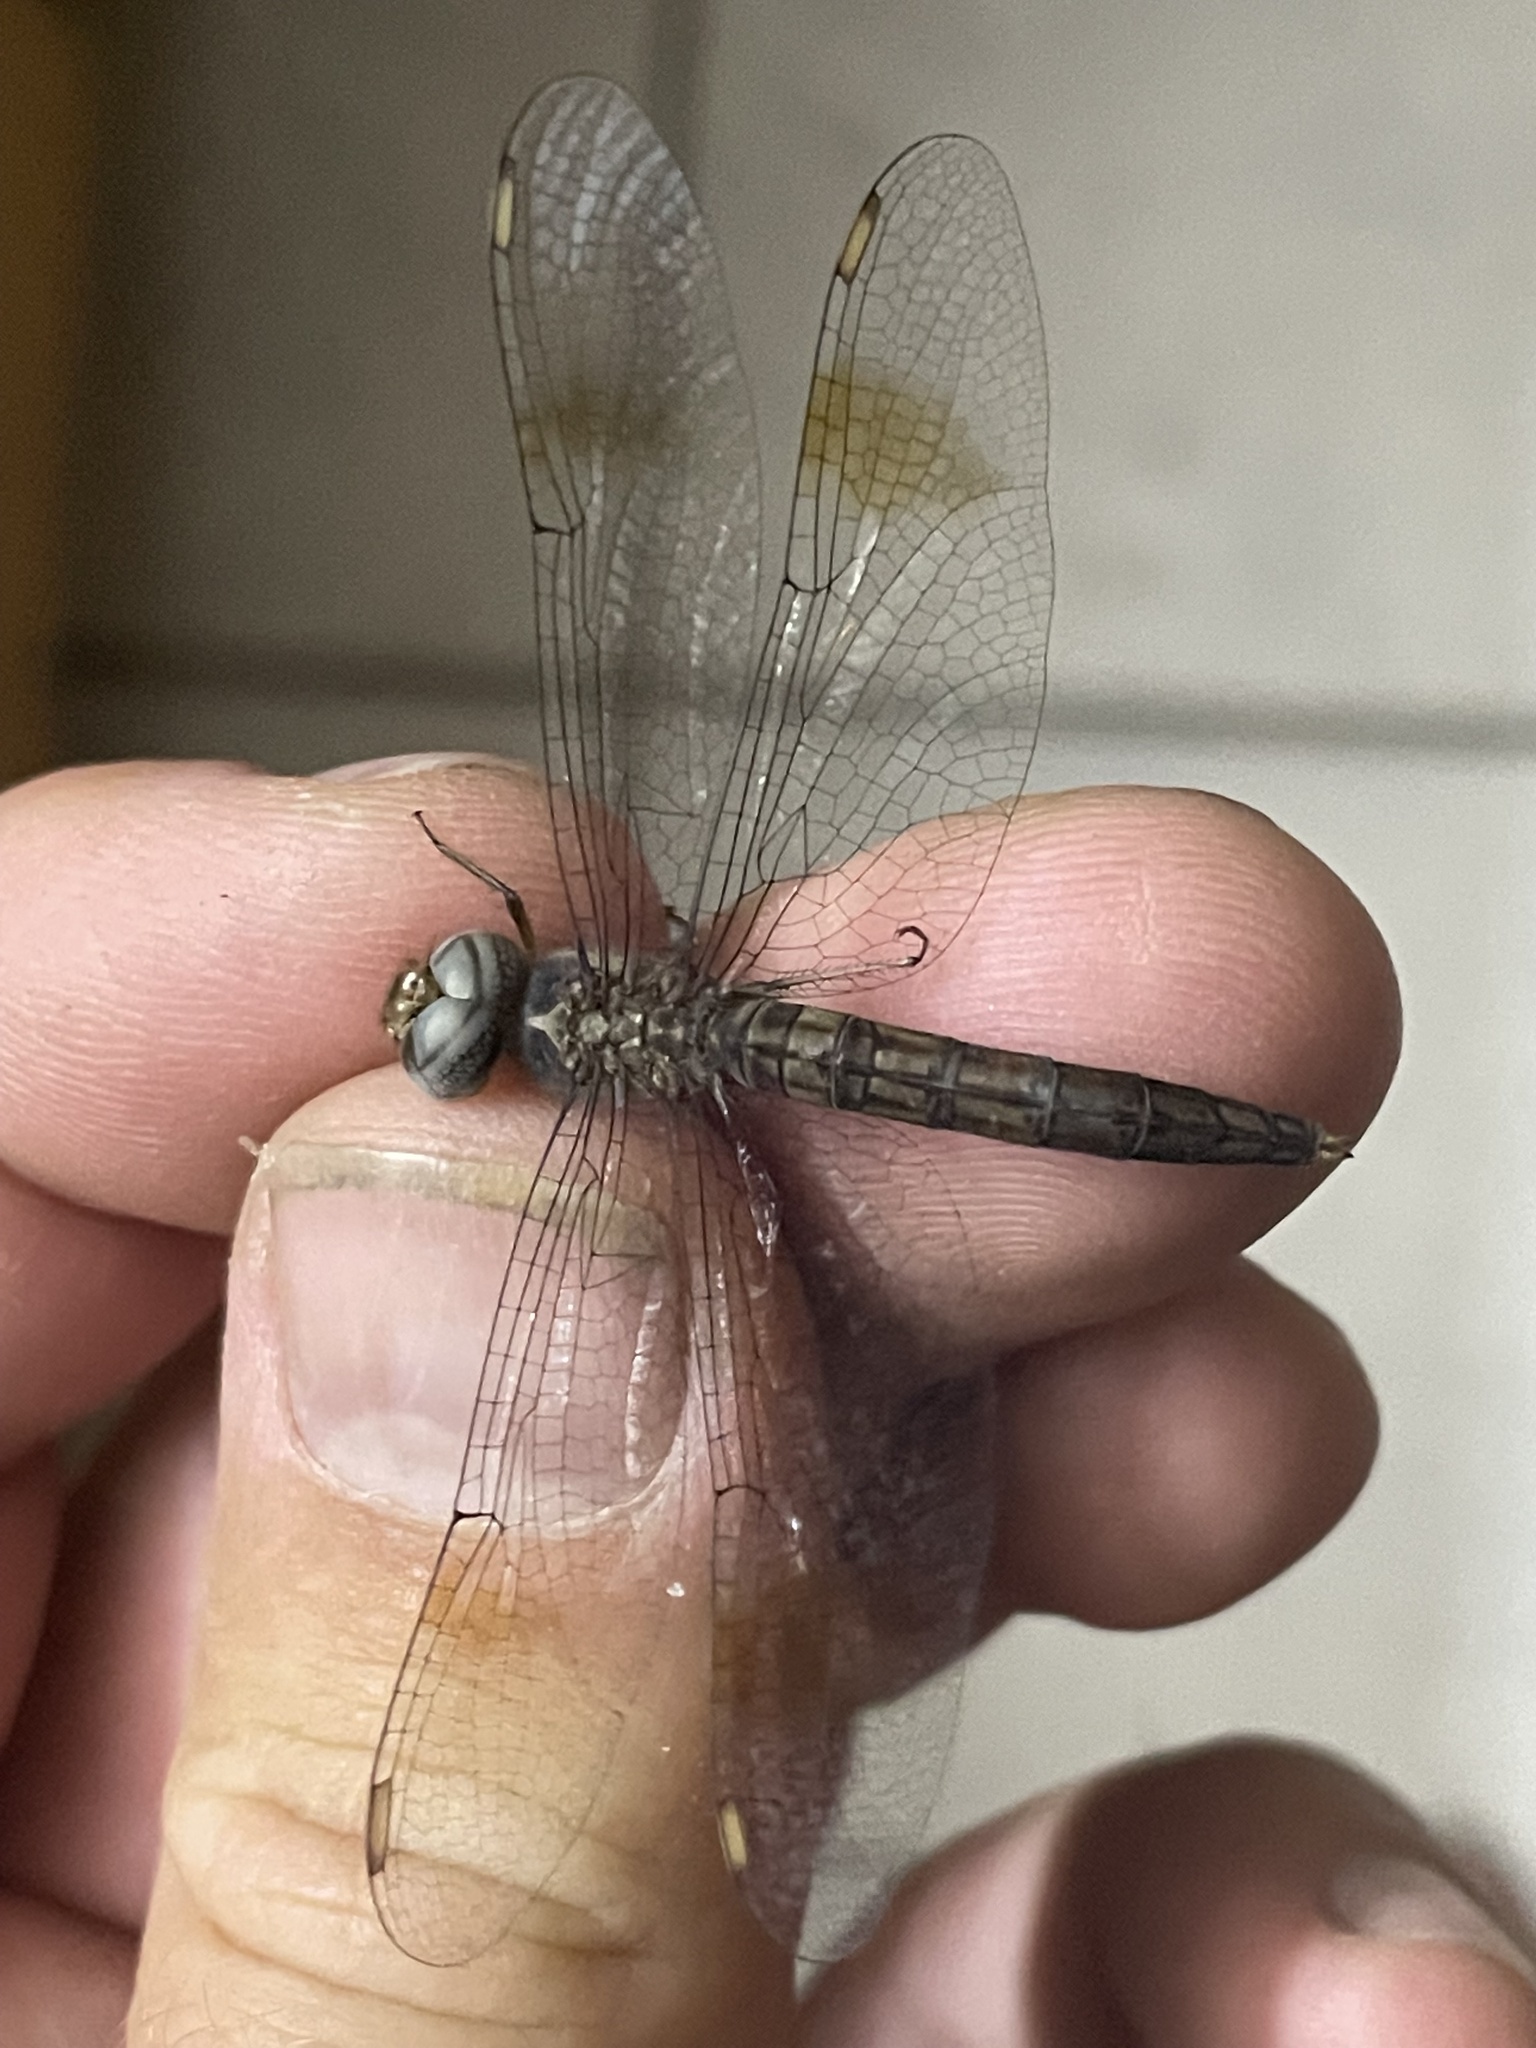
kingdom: Animalia
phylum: Arthropoda
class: Insecta
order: Odonata
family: Libellulidae
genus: Parazyxomma
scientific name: Parazyxomma flavicans
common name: Banded duskdarter
